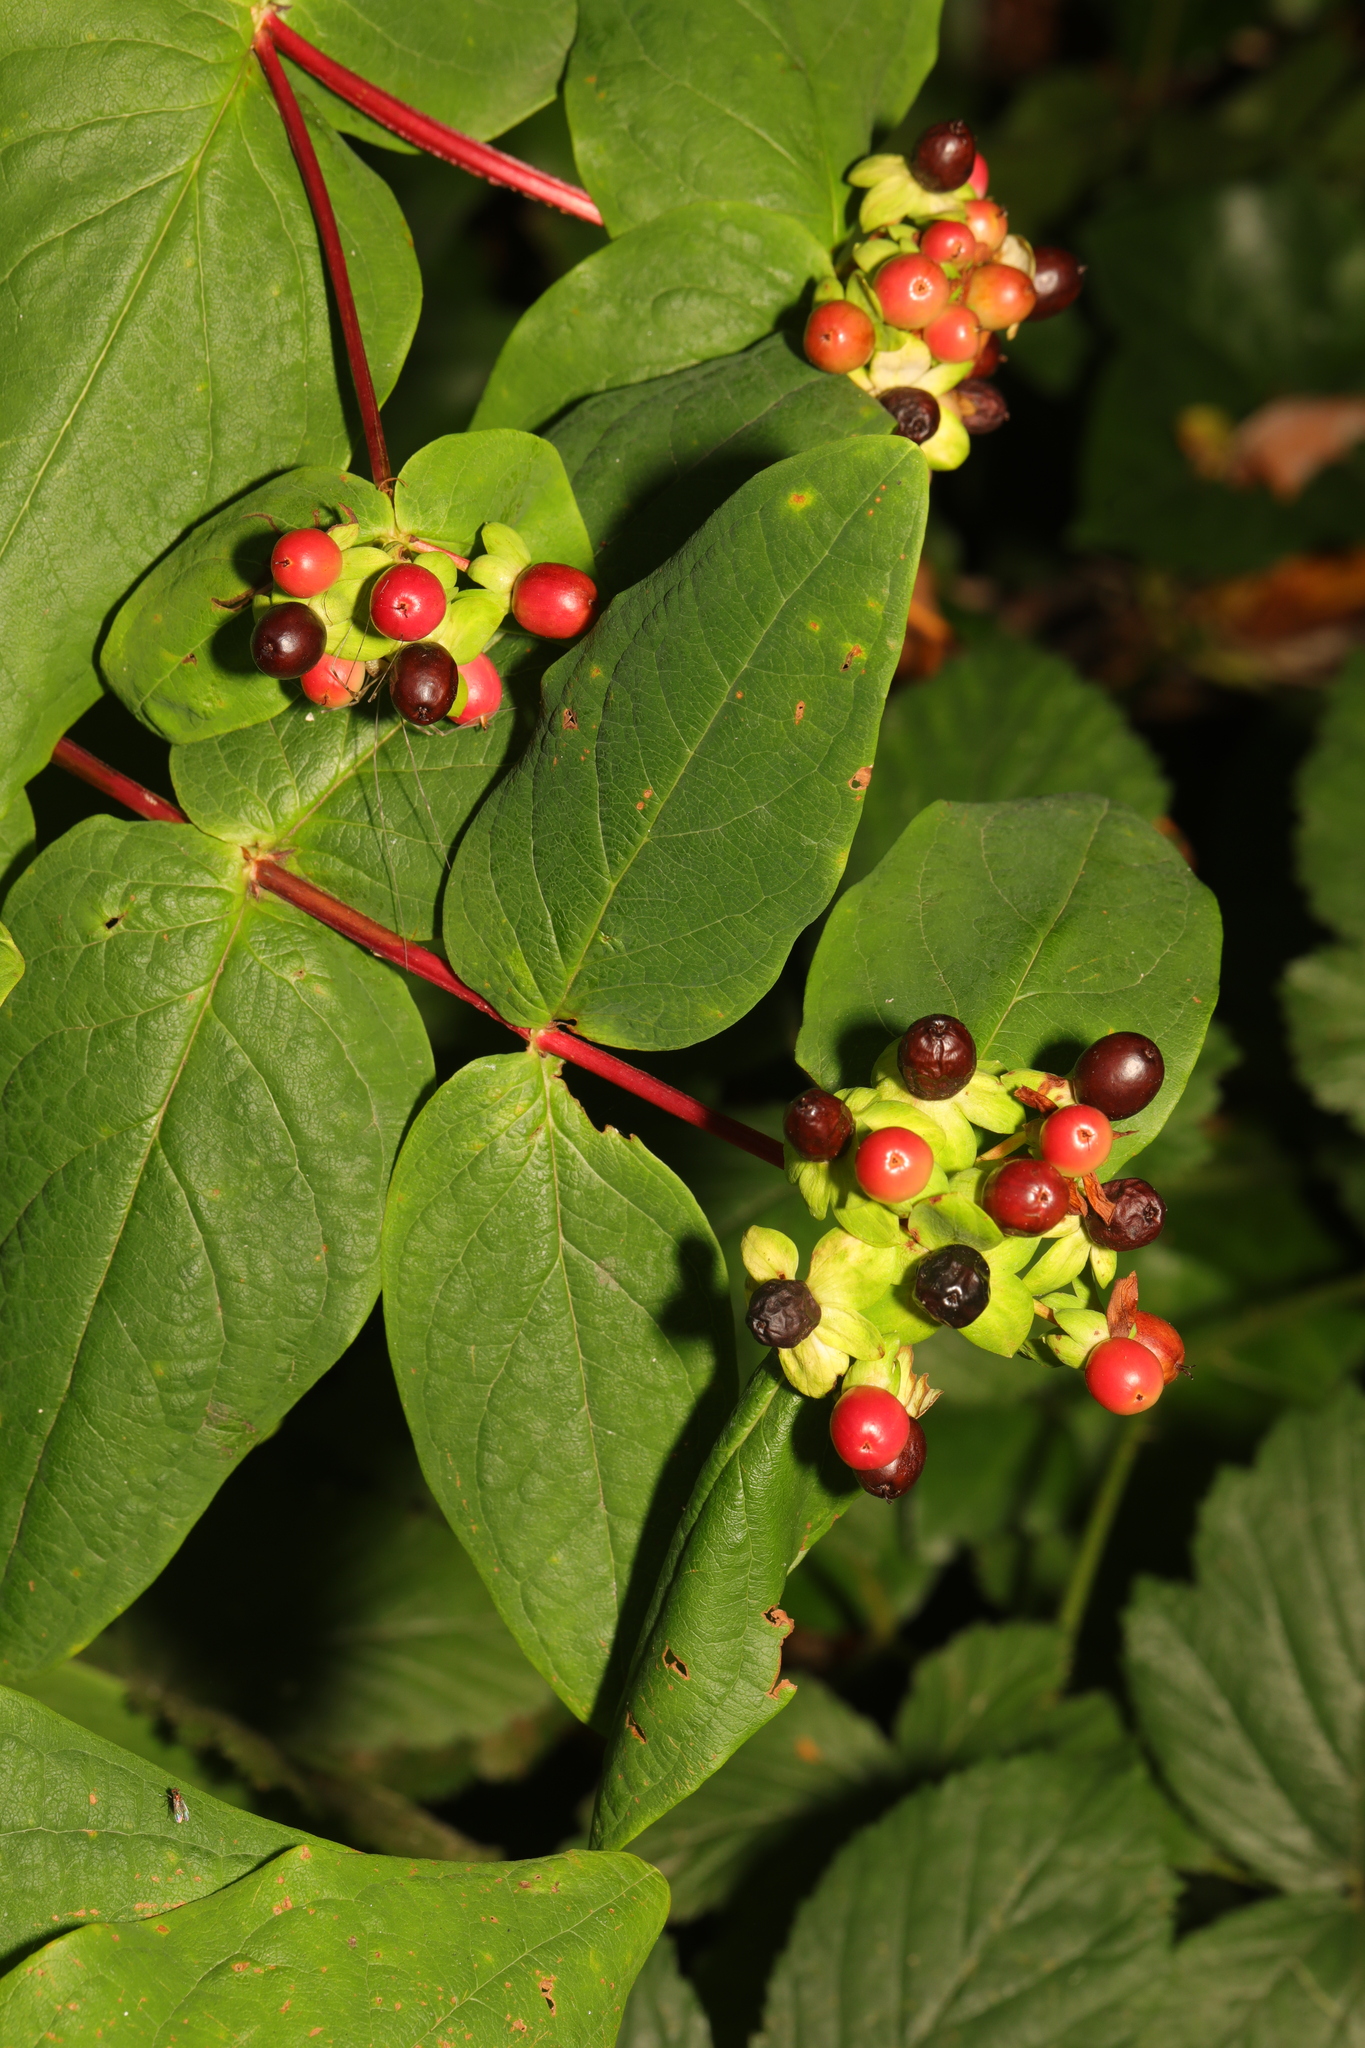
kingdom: Plantae
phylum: Tracheophyta
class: Magnoliopsida
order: Malpighiales
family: Hypericaceae
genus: Hypericum
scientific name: Hypericum androsaemum
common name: Sweet-amber
